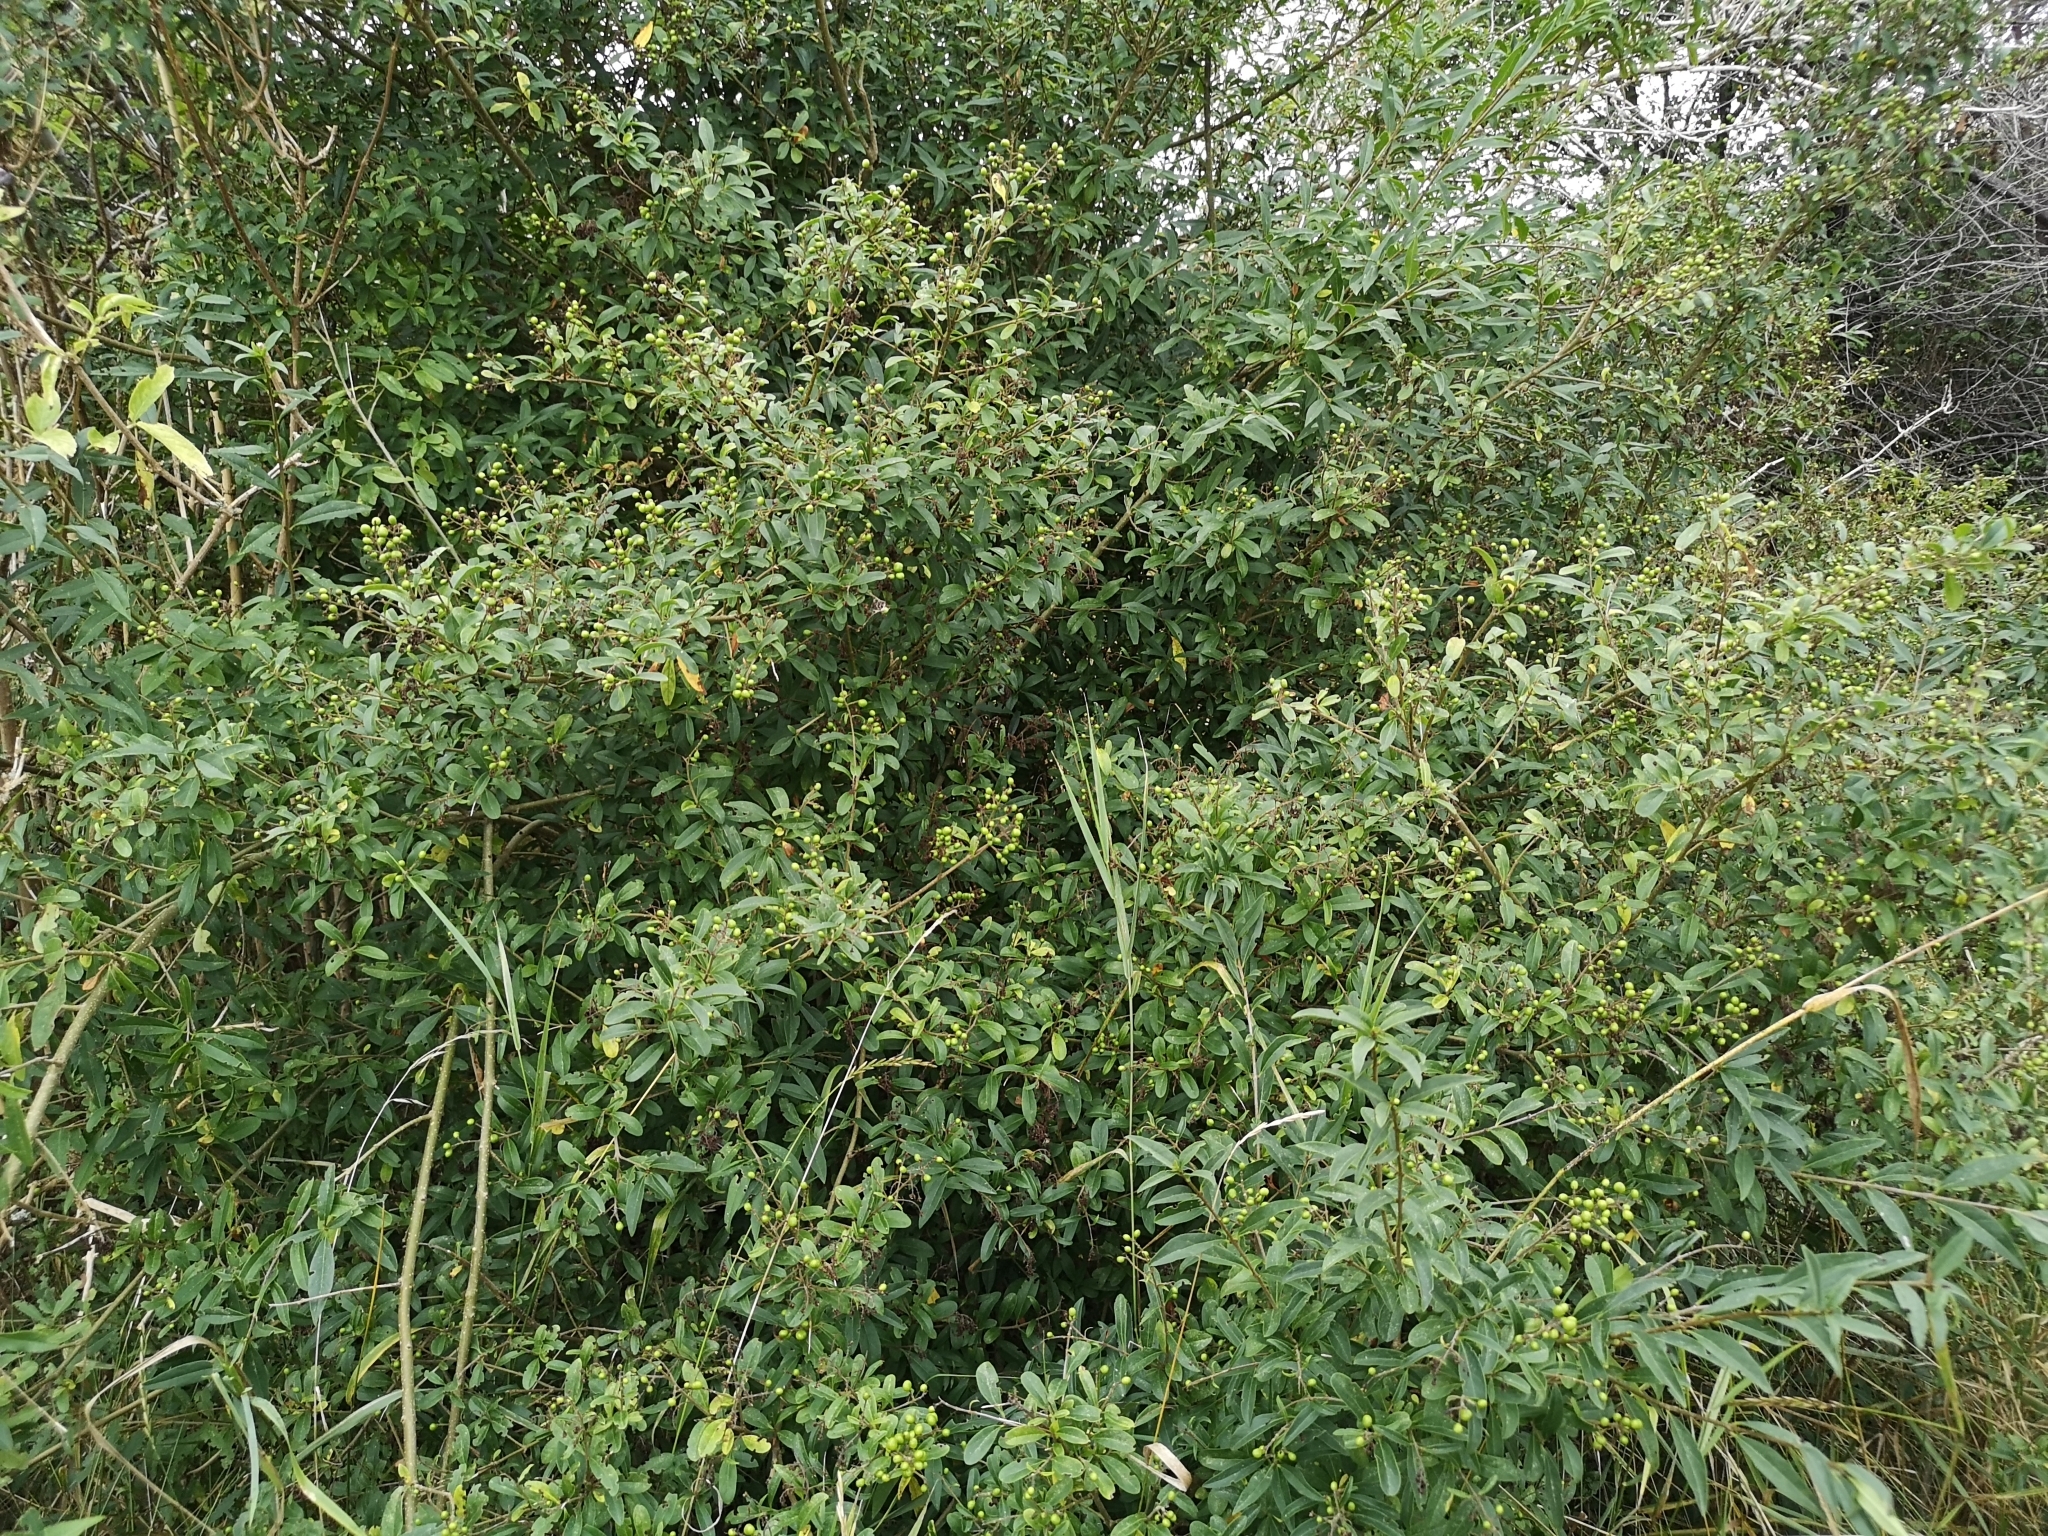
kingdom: Plantae
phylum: Tracheophyta
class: Magnoliopsida
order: Lamiales
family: Oleaceae
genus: Ligustrum
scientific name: Ligustrum vulgare
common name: Wild privet
